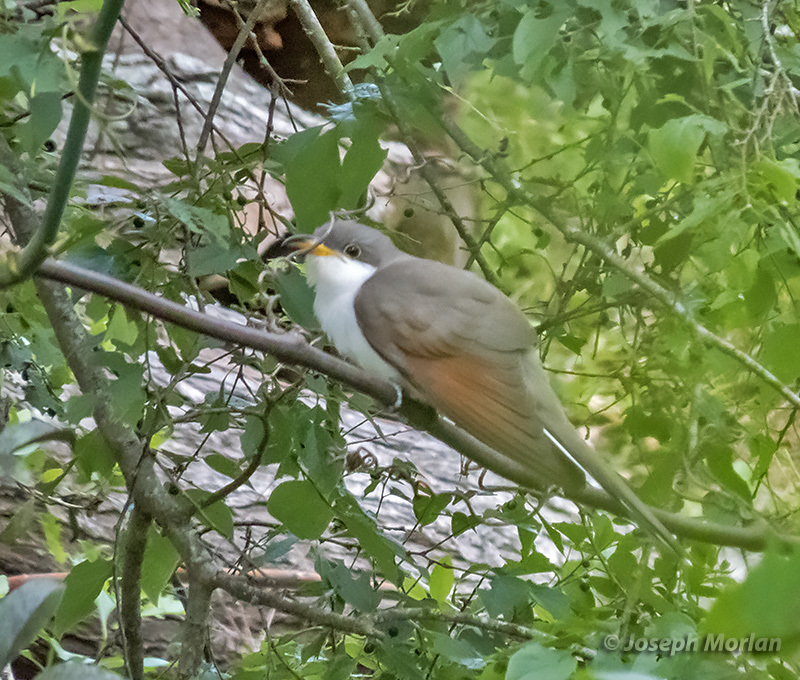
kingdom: Animalia
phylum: Chordata
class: Aves
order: Cuculiformes
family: Cuculidae
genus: Coccyzus
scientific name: Coccyzus americanus
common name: Yellow-billed cuckoo
